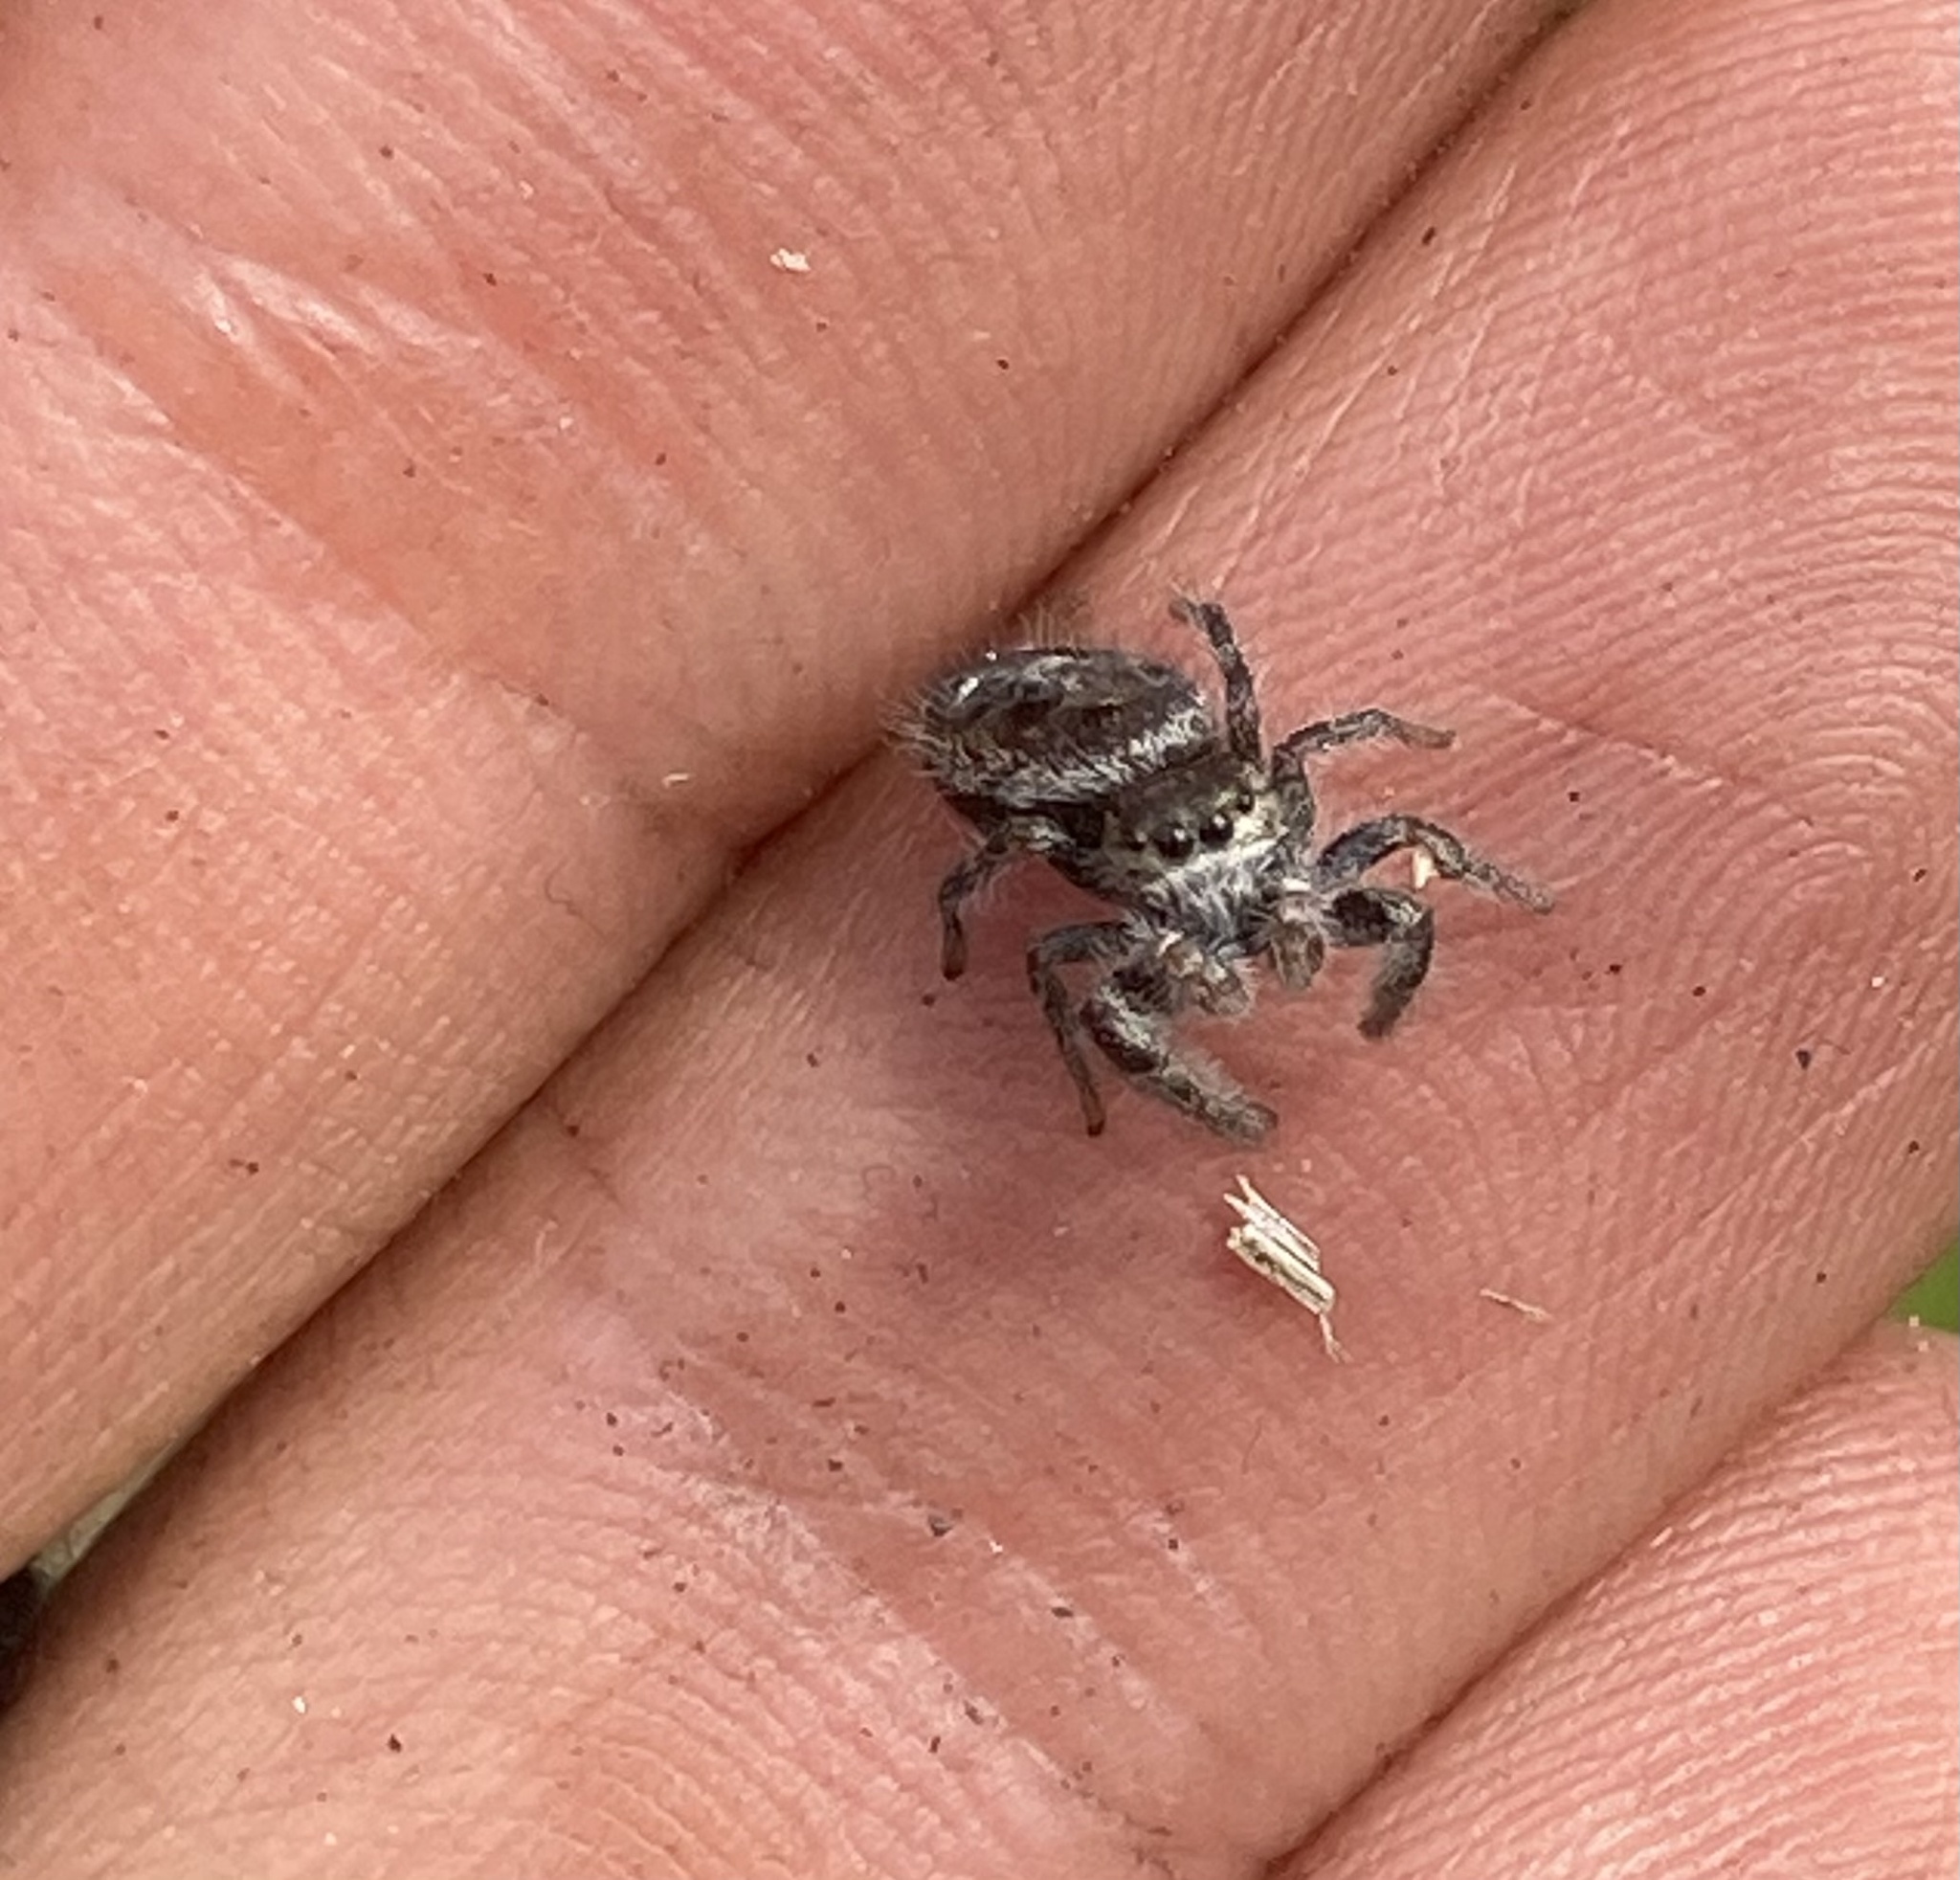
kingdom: Animalia
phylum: Arthropoda
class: Arachnida
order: Araneae
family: Salticidae
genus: Phidippus
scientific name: Phidippus insignarius
